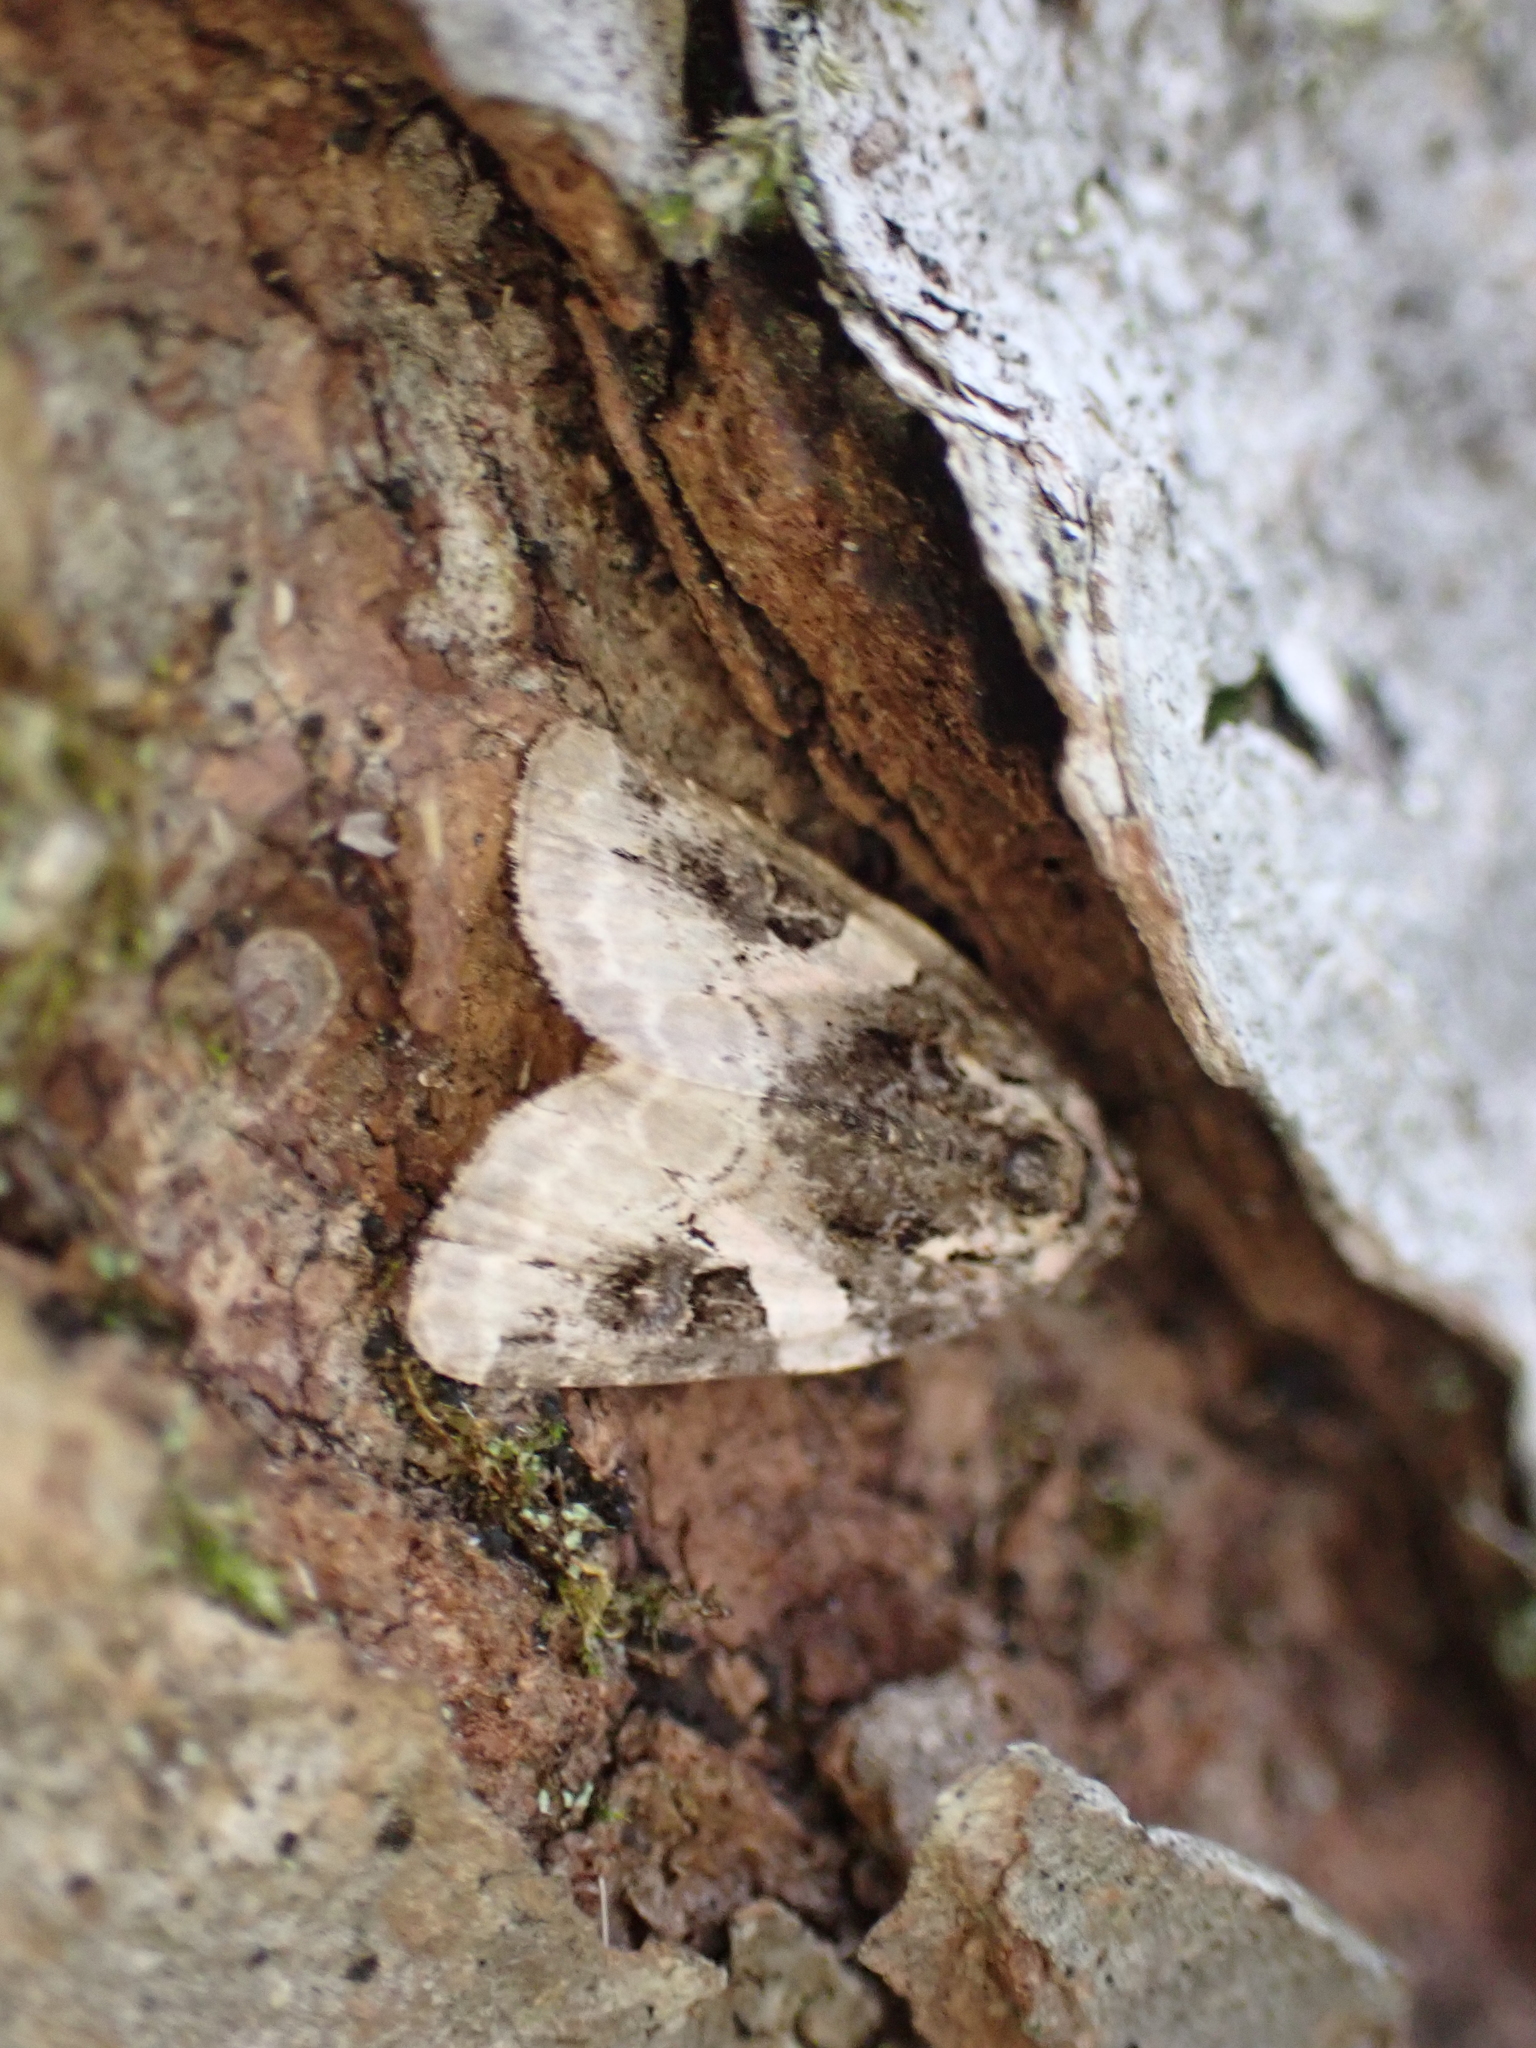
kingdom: Animalia
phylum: Arthropoda
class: Insecta
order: Lepidoptera
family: Noctuidae
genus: Pseudeustrotia
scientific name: Pseudeustrotia carneola
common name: Pink-barred lithacodia moth
